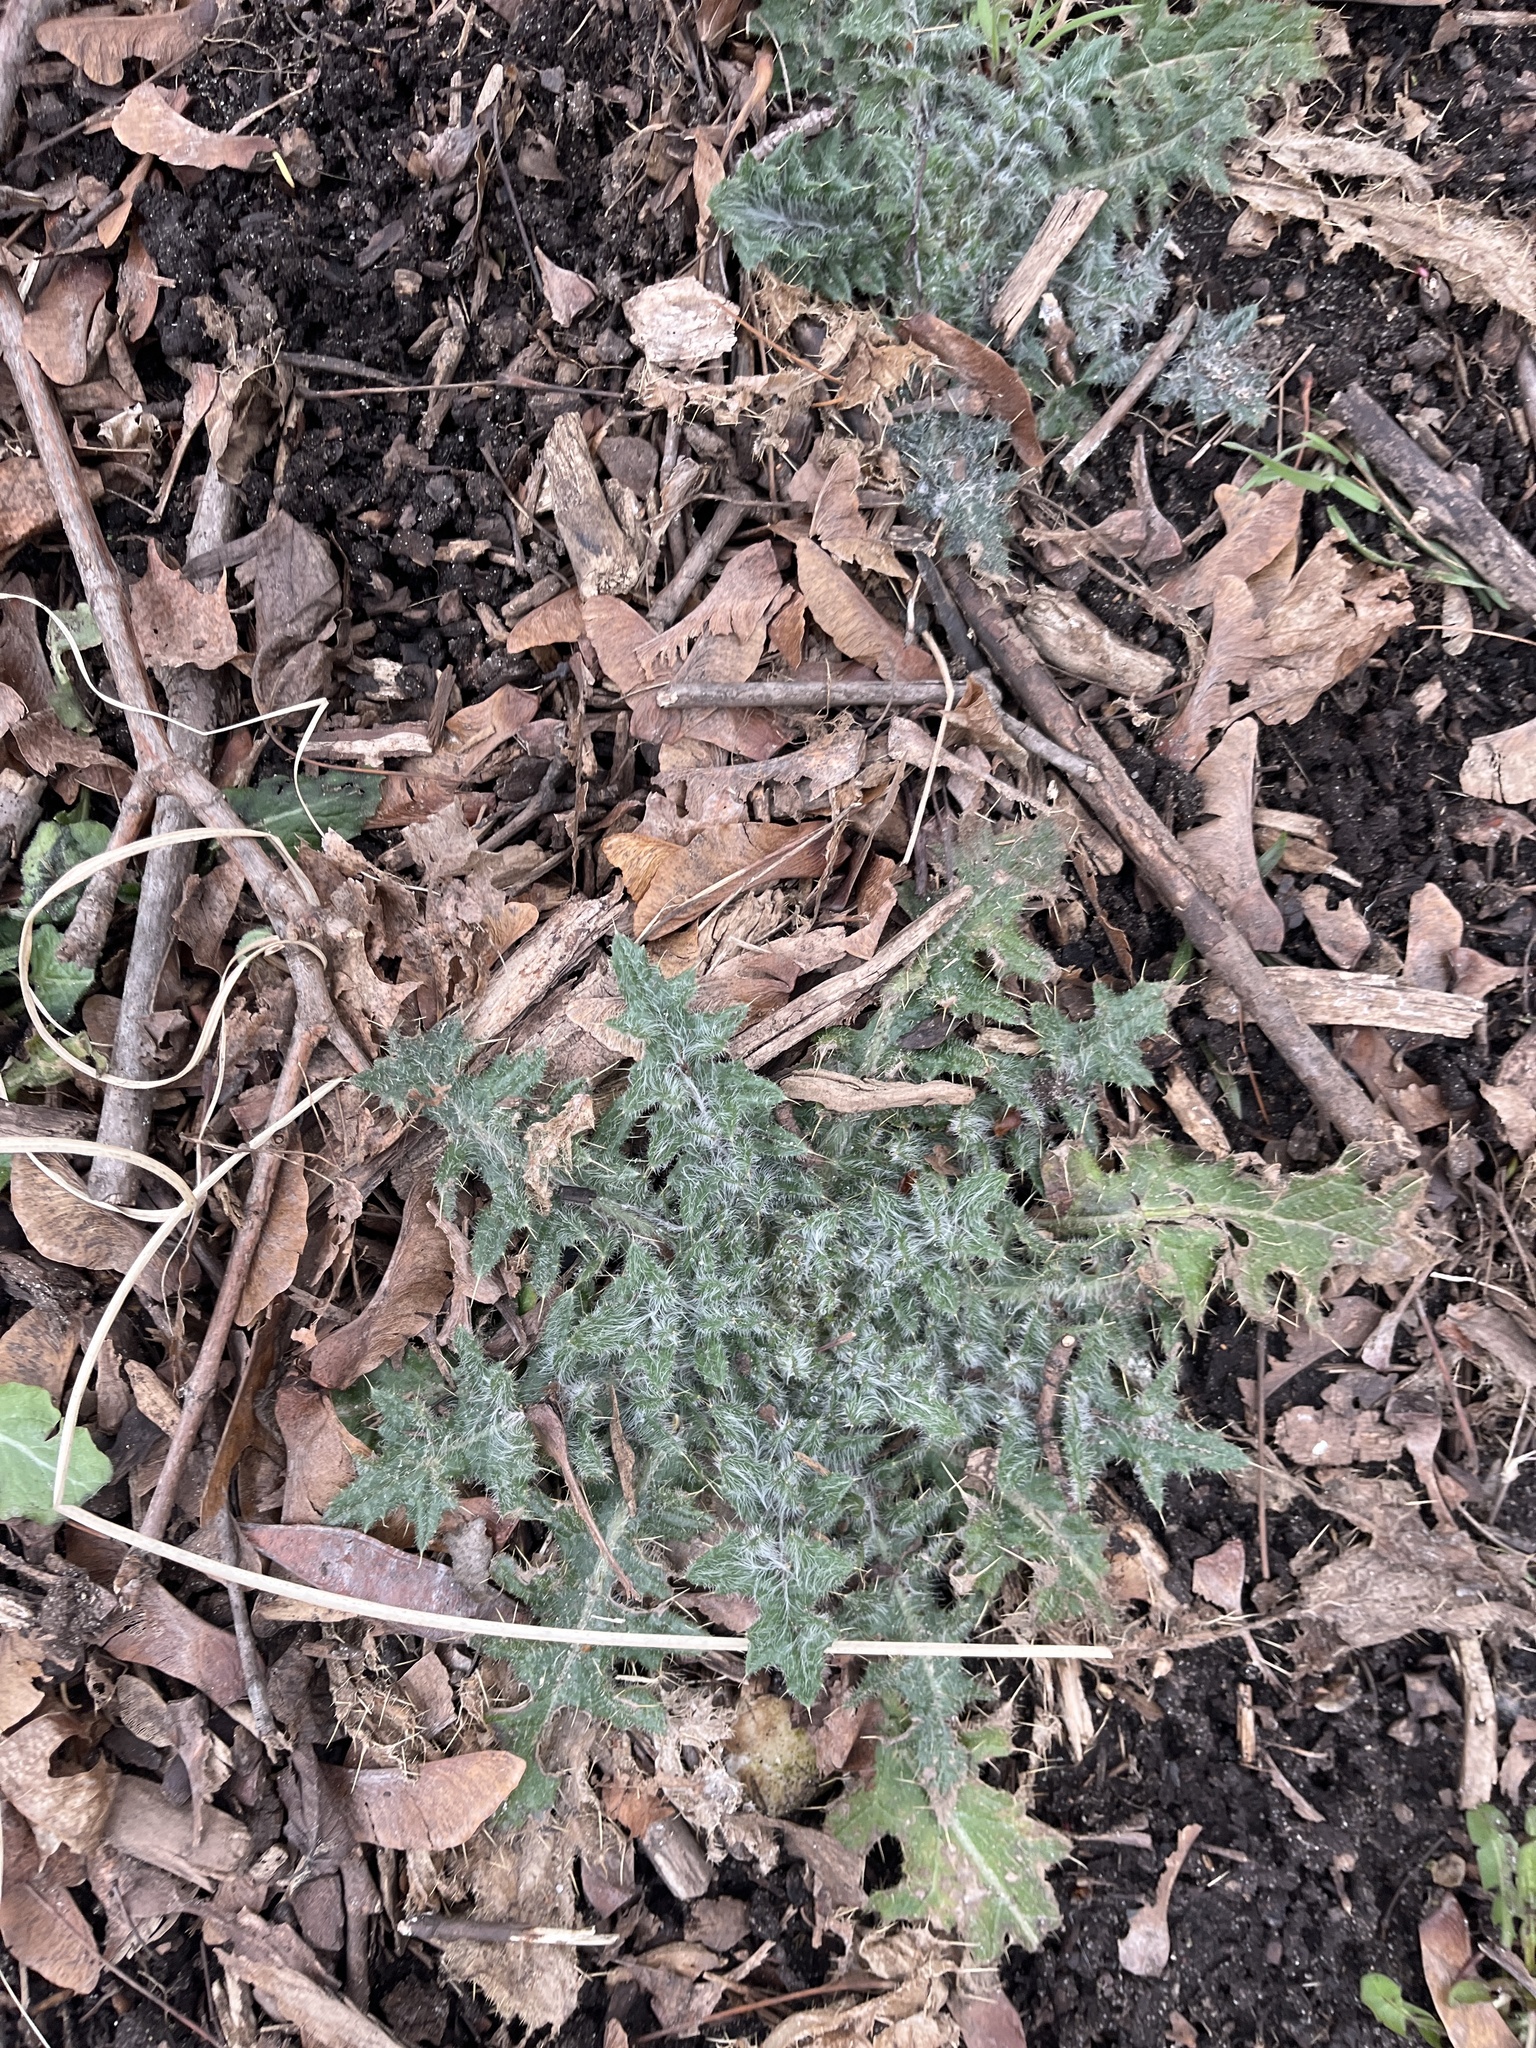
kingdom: Plantae
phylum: Tracheophyta
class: Magnoliopsida
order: Asterales
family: Asteraceae
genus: Cirsium
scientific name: Cirsium vulgare
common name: Bull thistle
